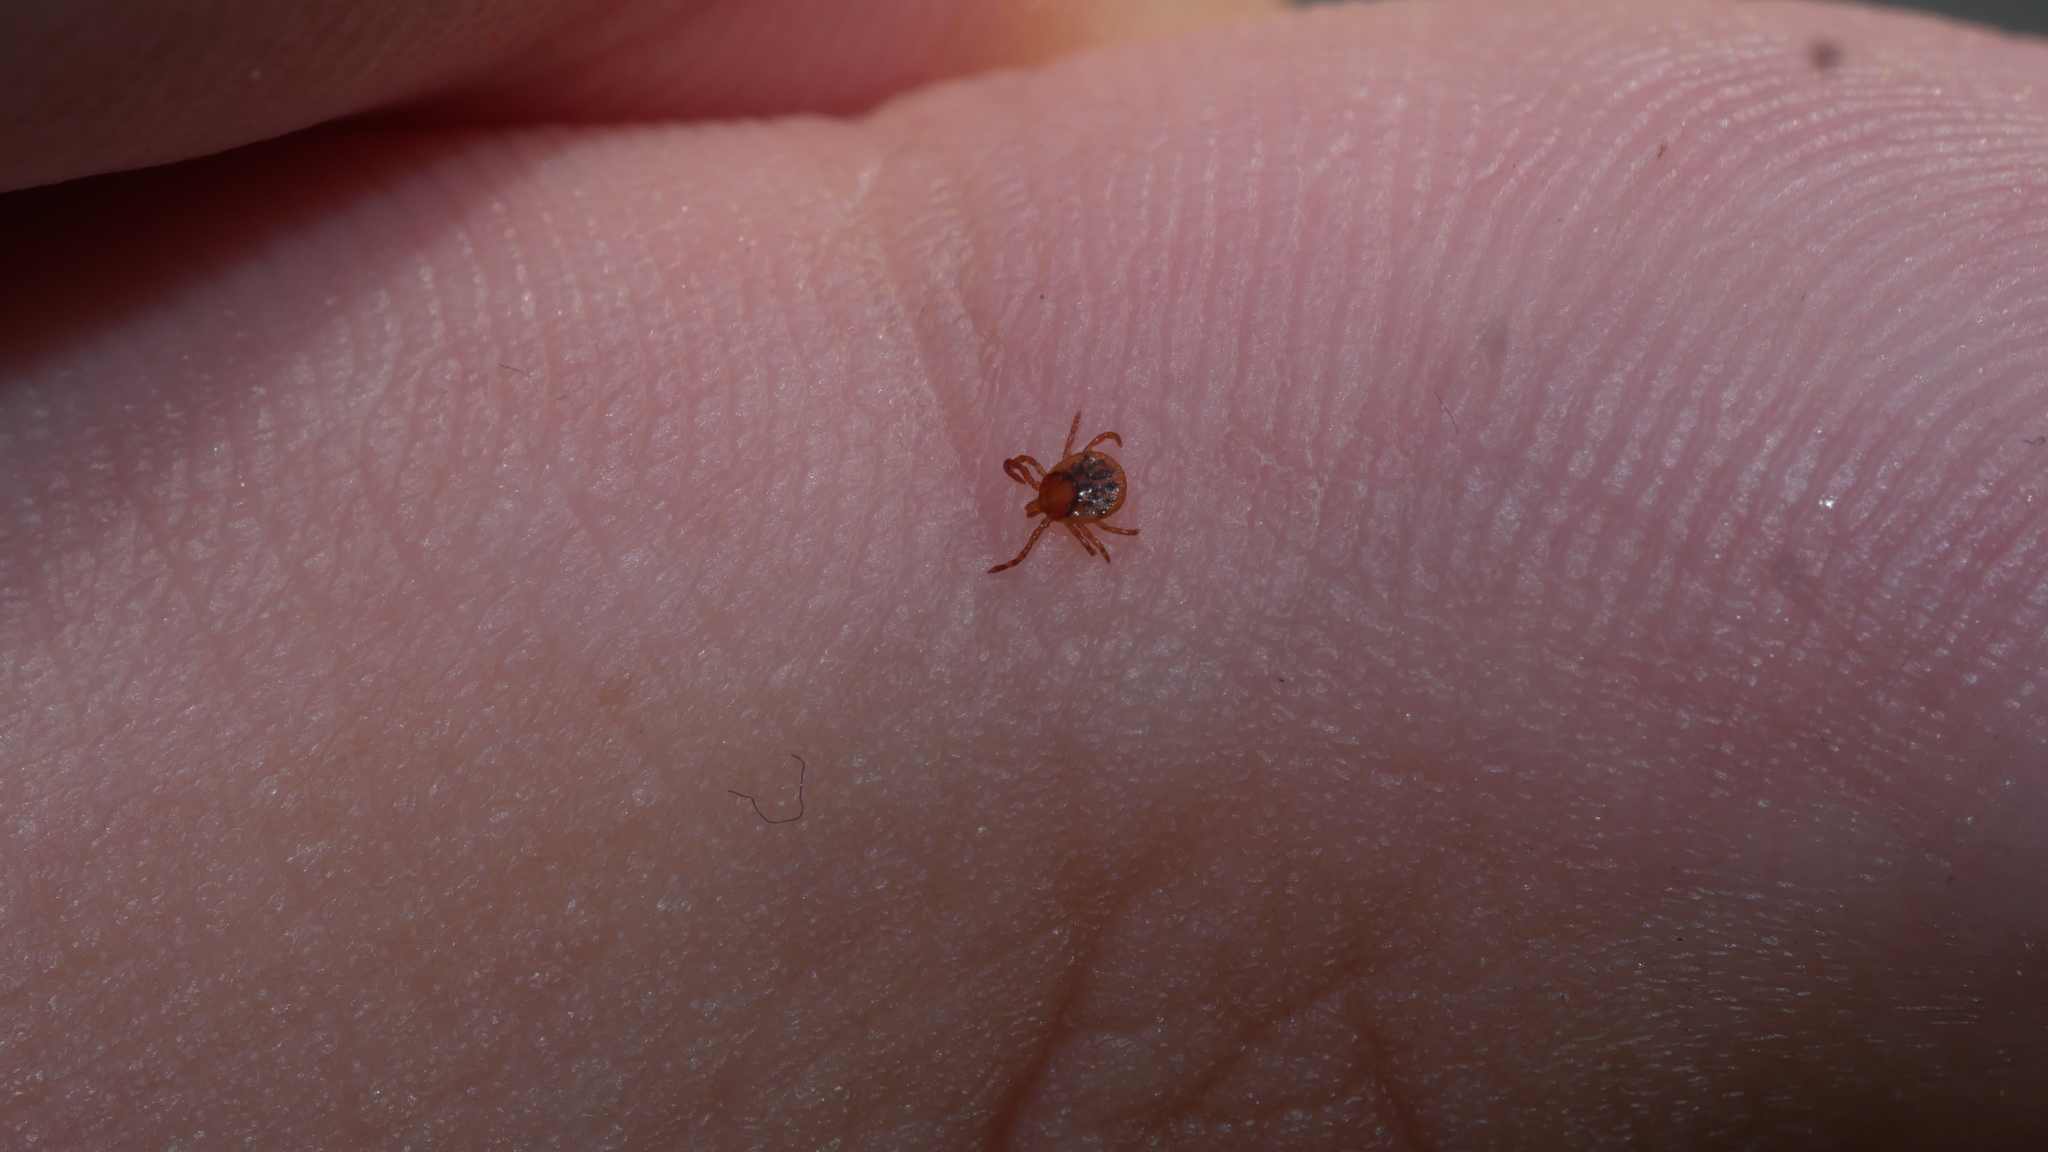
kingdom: Animalia
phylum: Arthropoda
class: Arachnida
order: Ixodida
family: Ixodidae
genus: Amblyomma
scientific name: Amblyomma americanum
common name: Lone star tick
